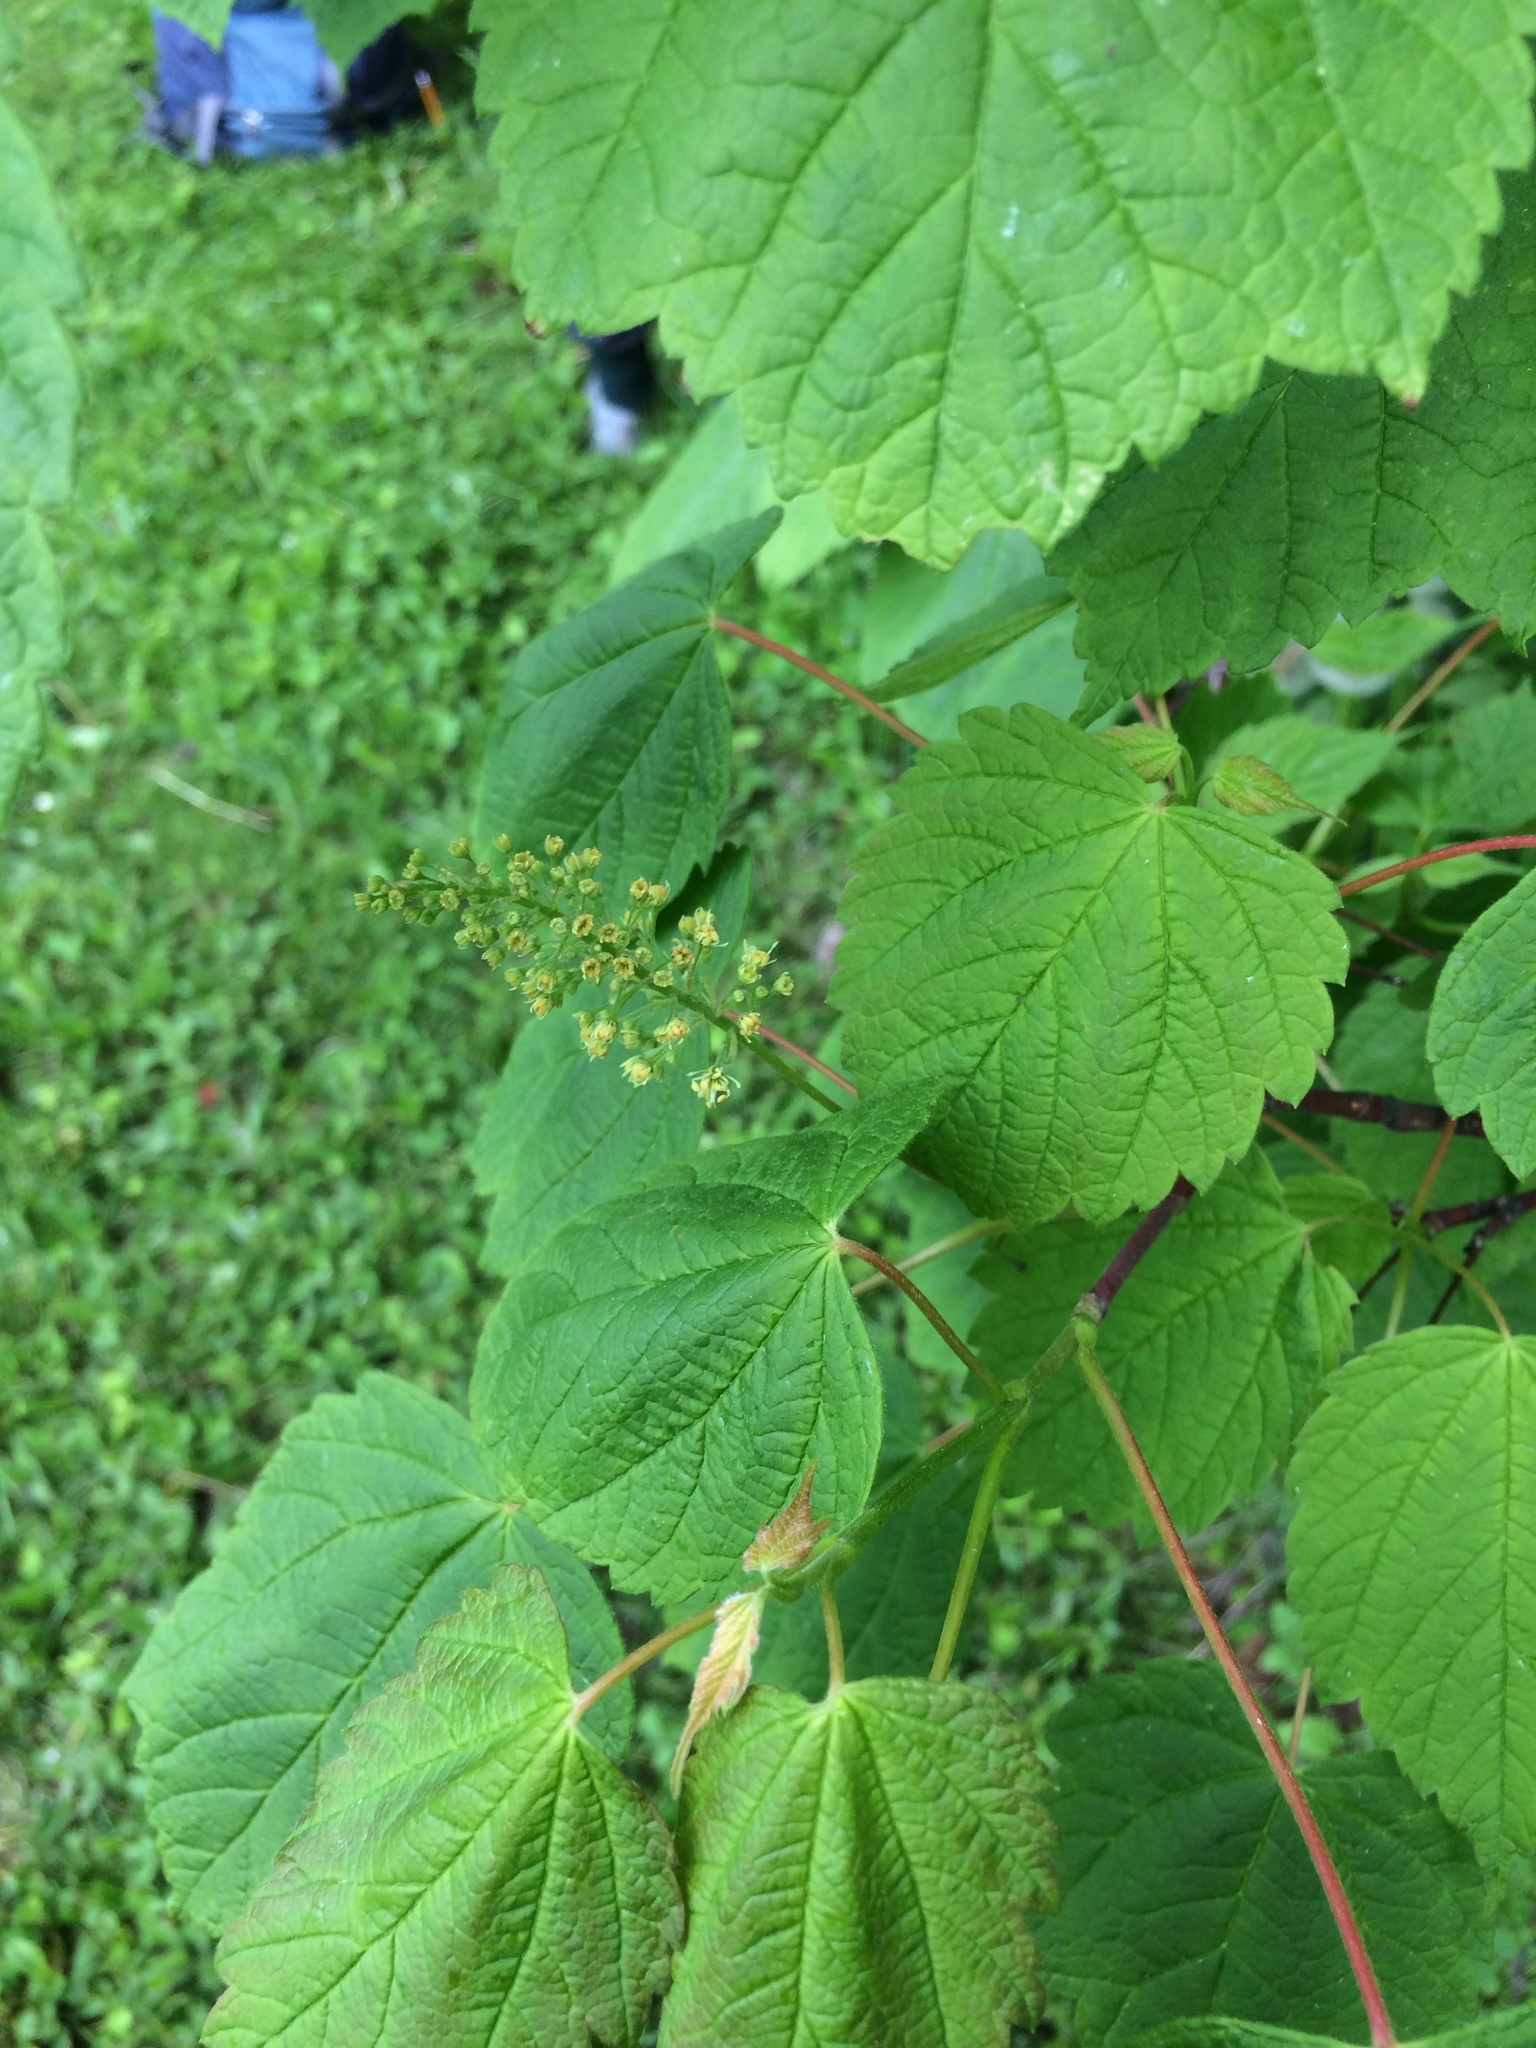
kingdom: Plantae
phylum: Tracheophyta
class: Magnoliopsida
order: Sapindales
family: Sapindaceae
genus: Acer
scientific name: Acer spicatum
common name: Mountain maple
